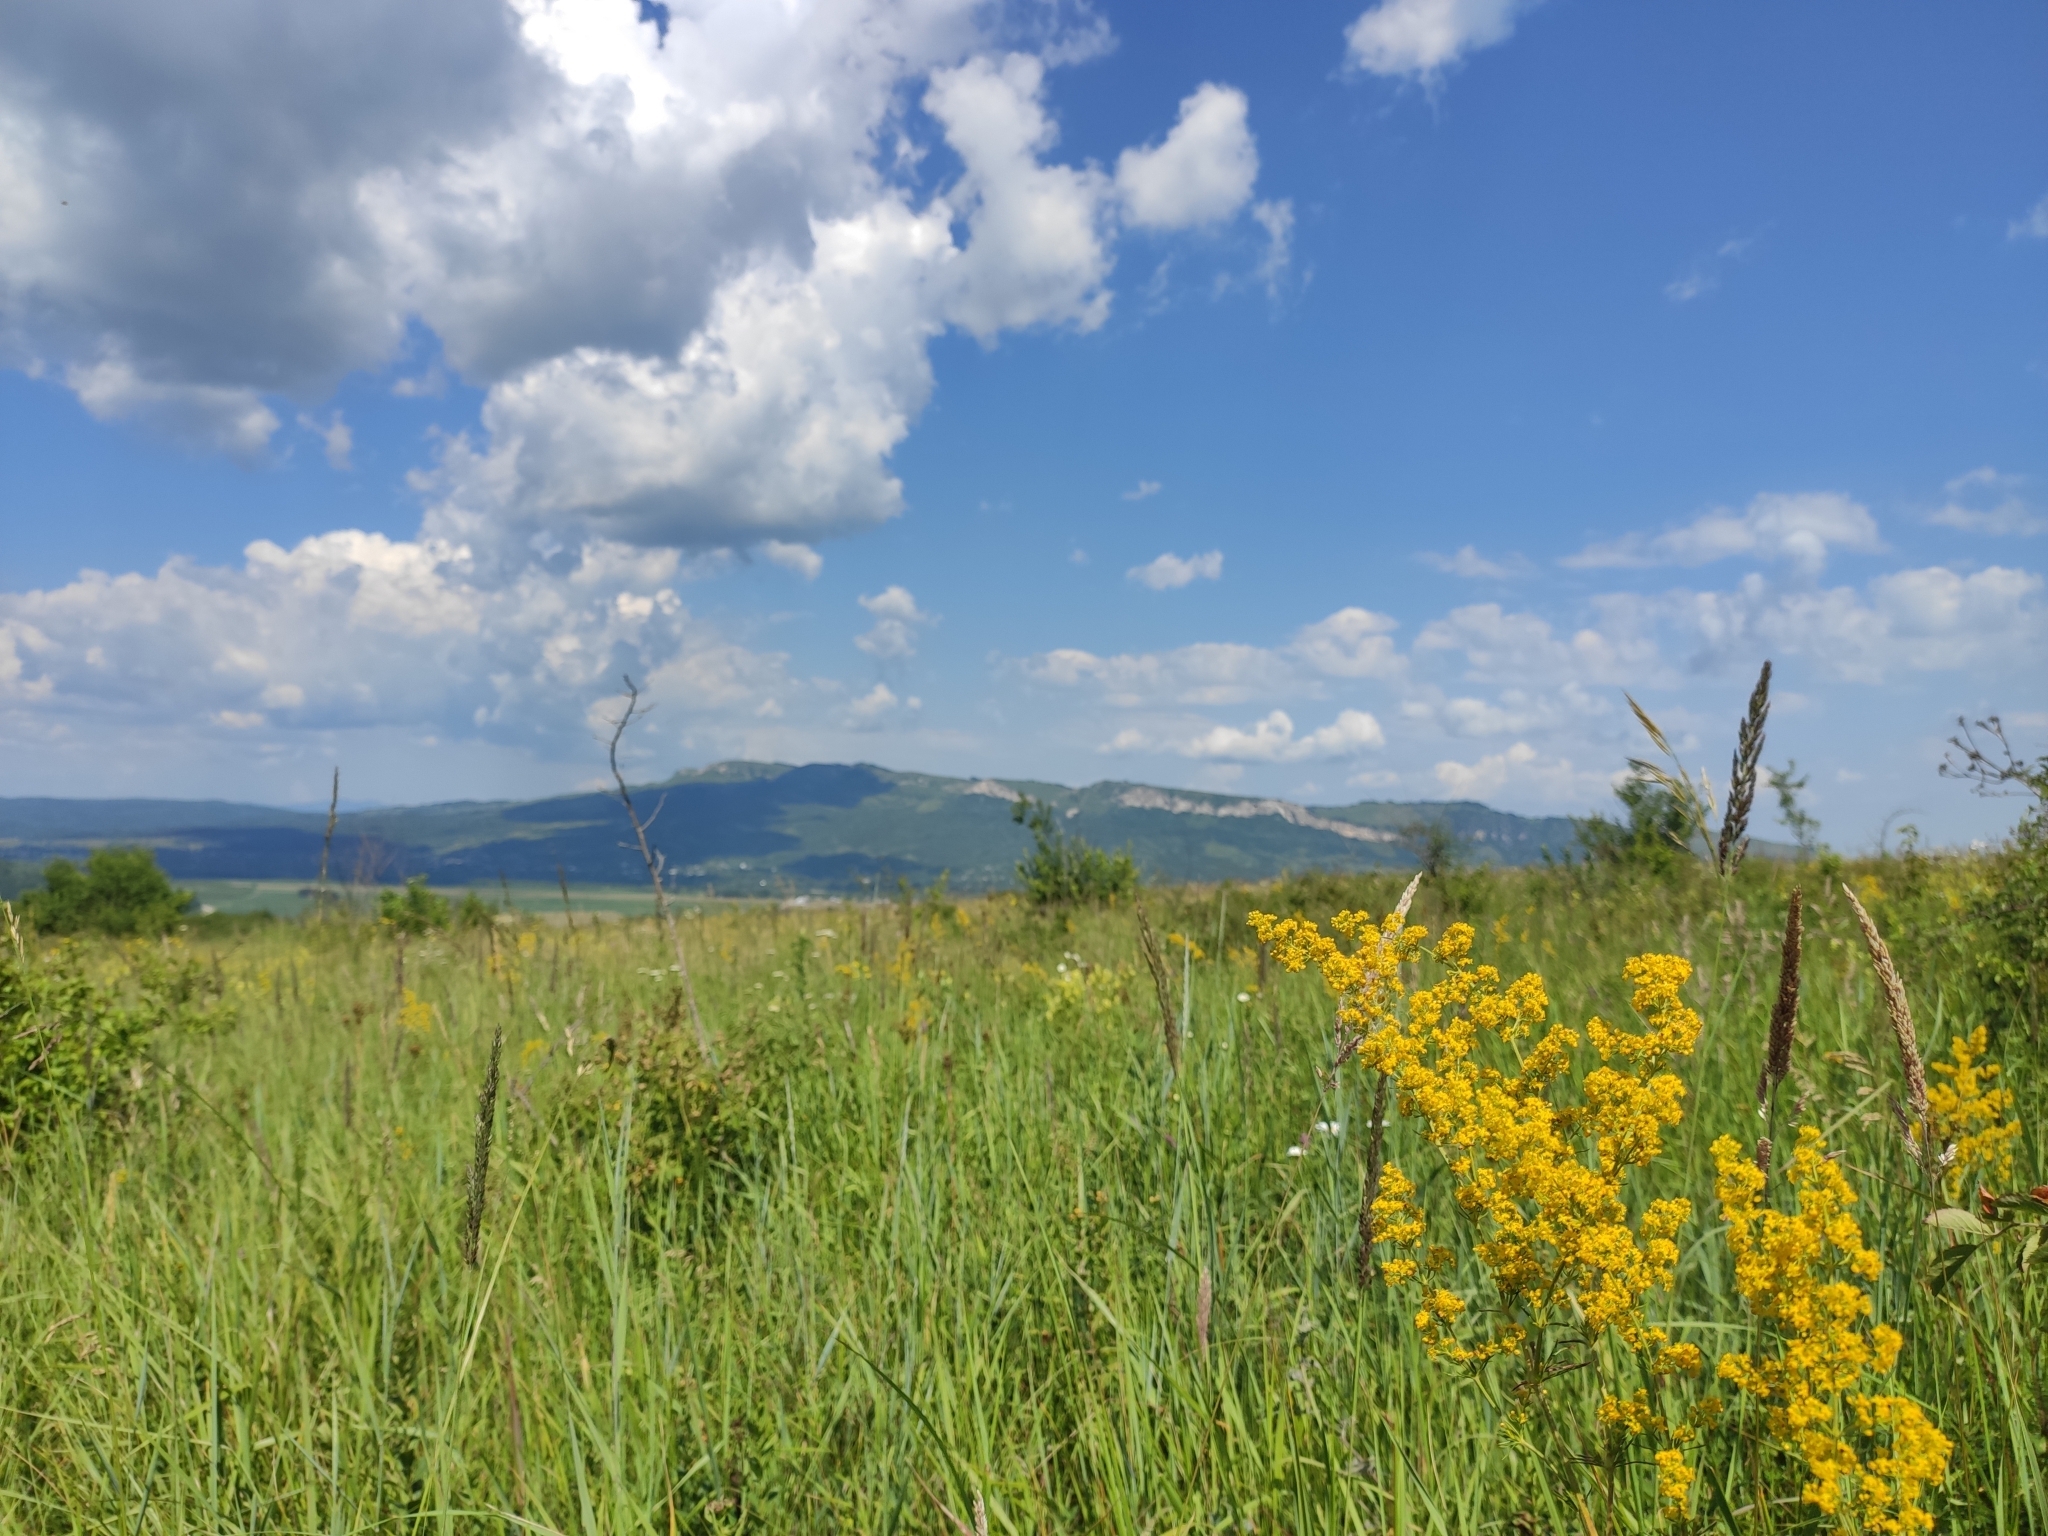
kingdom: Plantae
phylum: Tracheophyta
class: Magnoliopsida
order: Gentianales
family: Rubiaceae
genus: Galium
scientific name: Galium verum
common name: Lady's bedstraw
